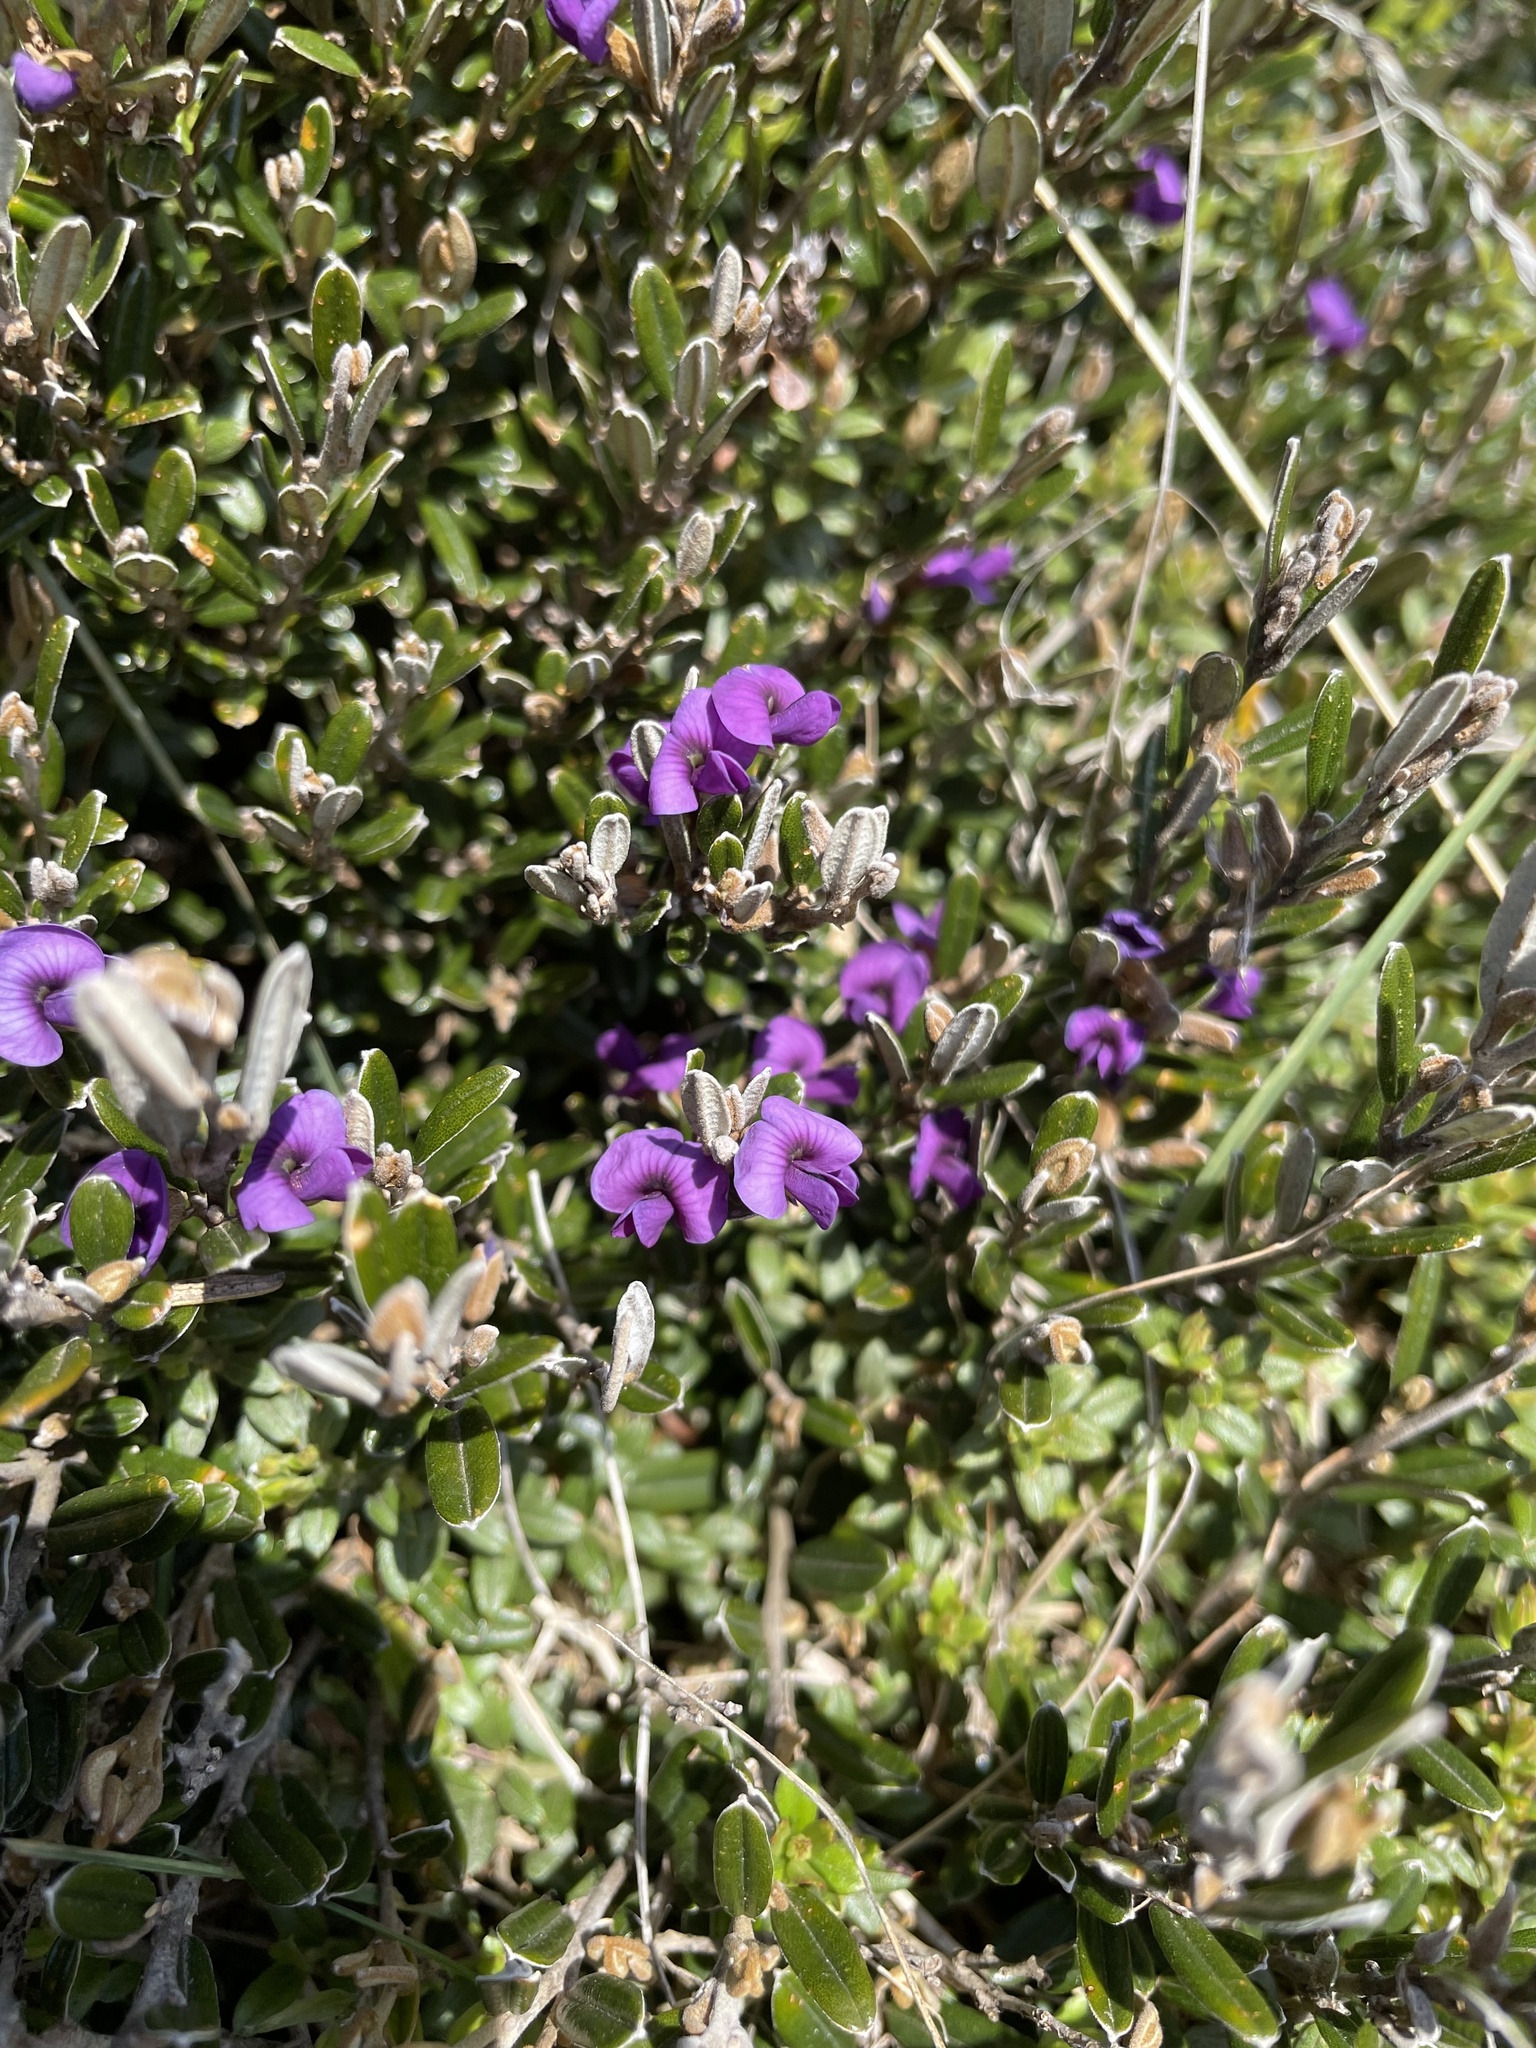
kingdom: Plantae
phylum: Tracheophyta
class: Magnoliopsida
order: Fabales
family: Fabaceae
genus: Hovea
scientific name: Hovea montana
